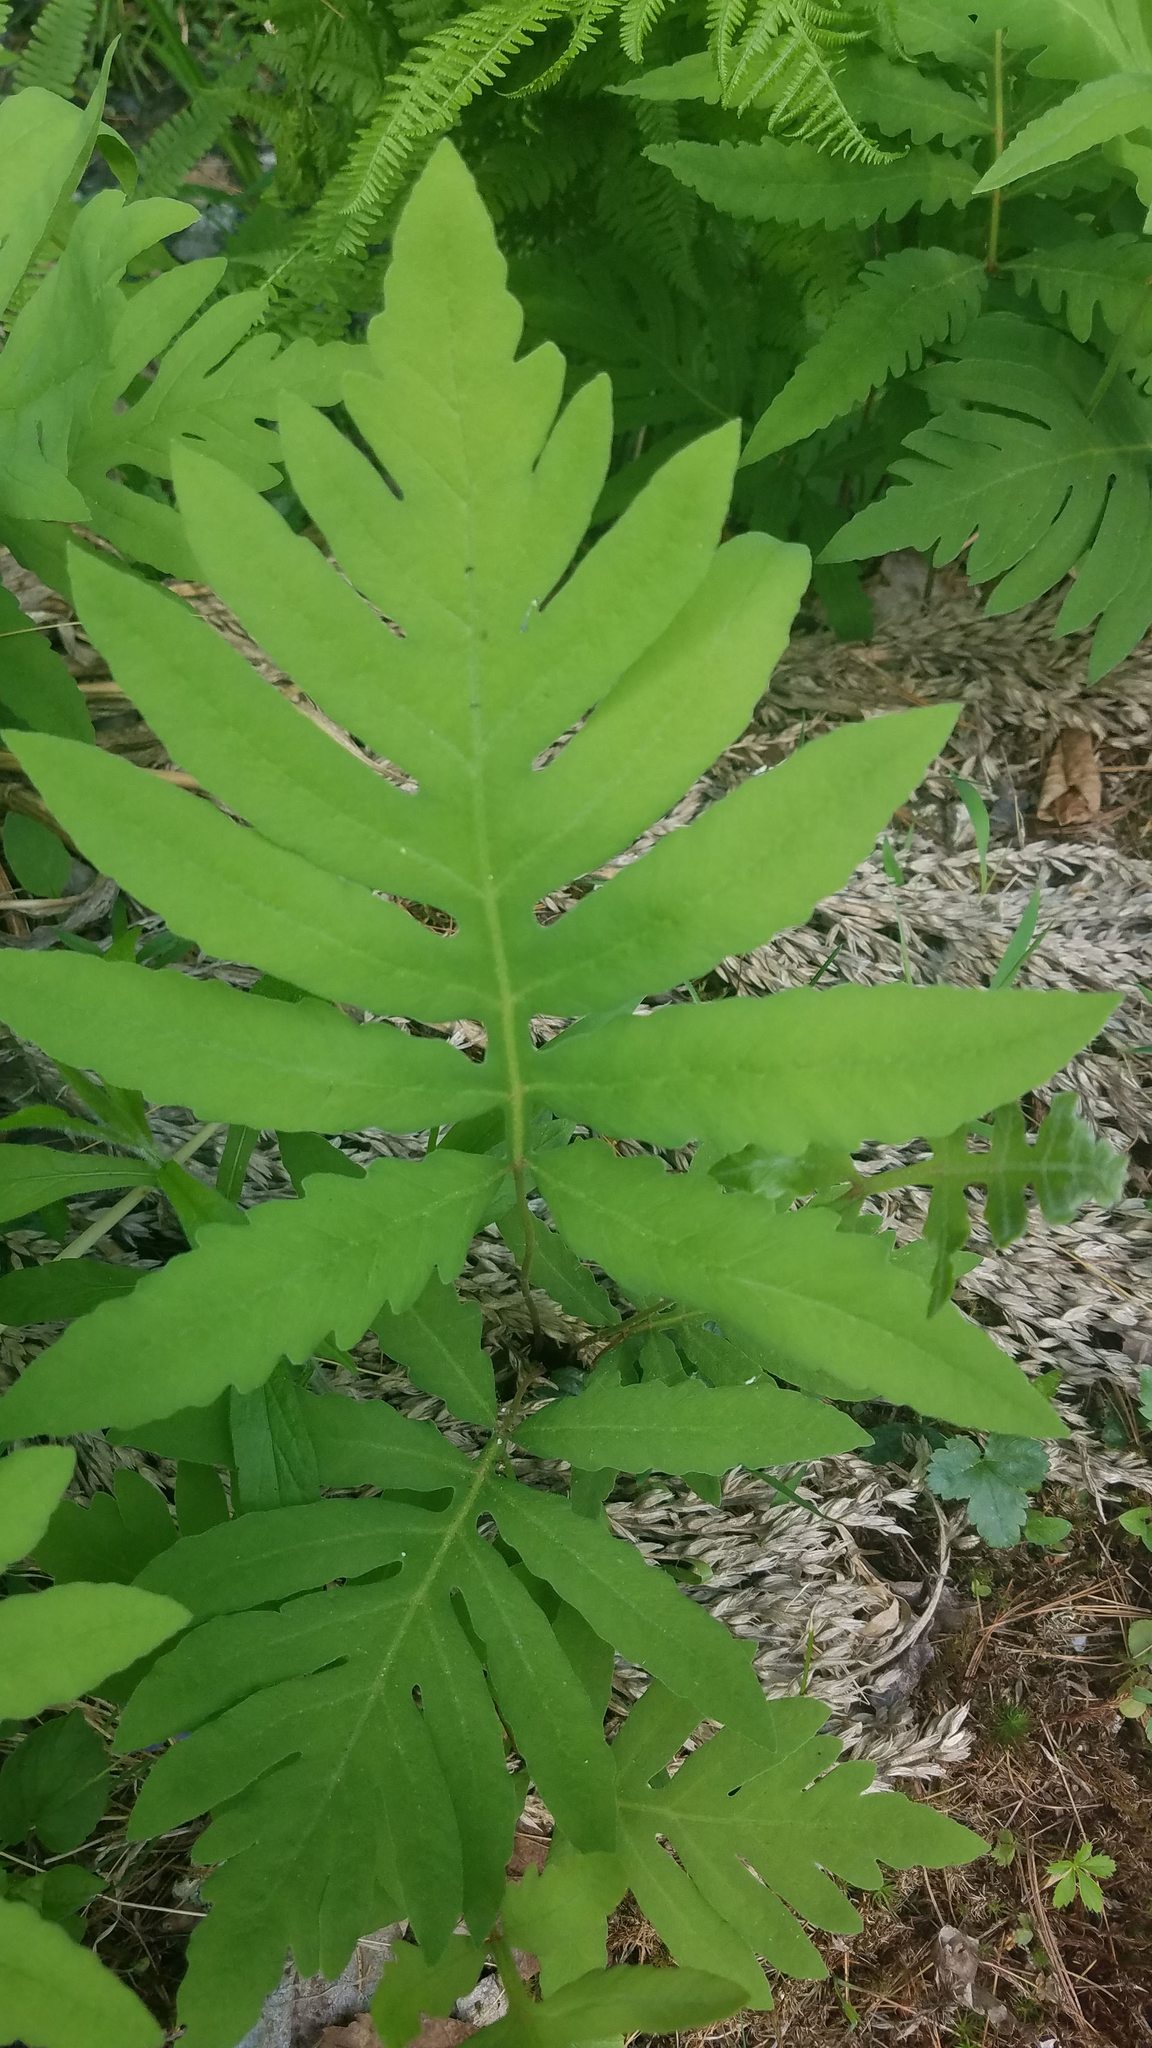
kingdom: Plantae
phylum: Tracheophyta
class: Polypodiopsida
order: Polypodiales
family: Onocleaceae
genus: Onoclea
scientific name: Onoclea sensibilis
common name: Sensitive fern
